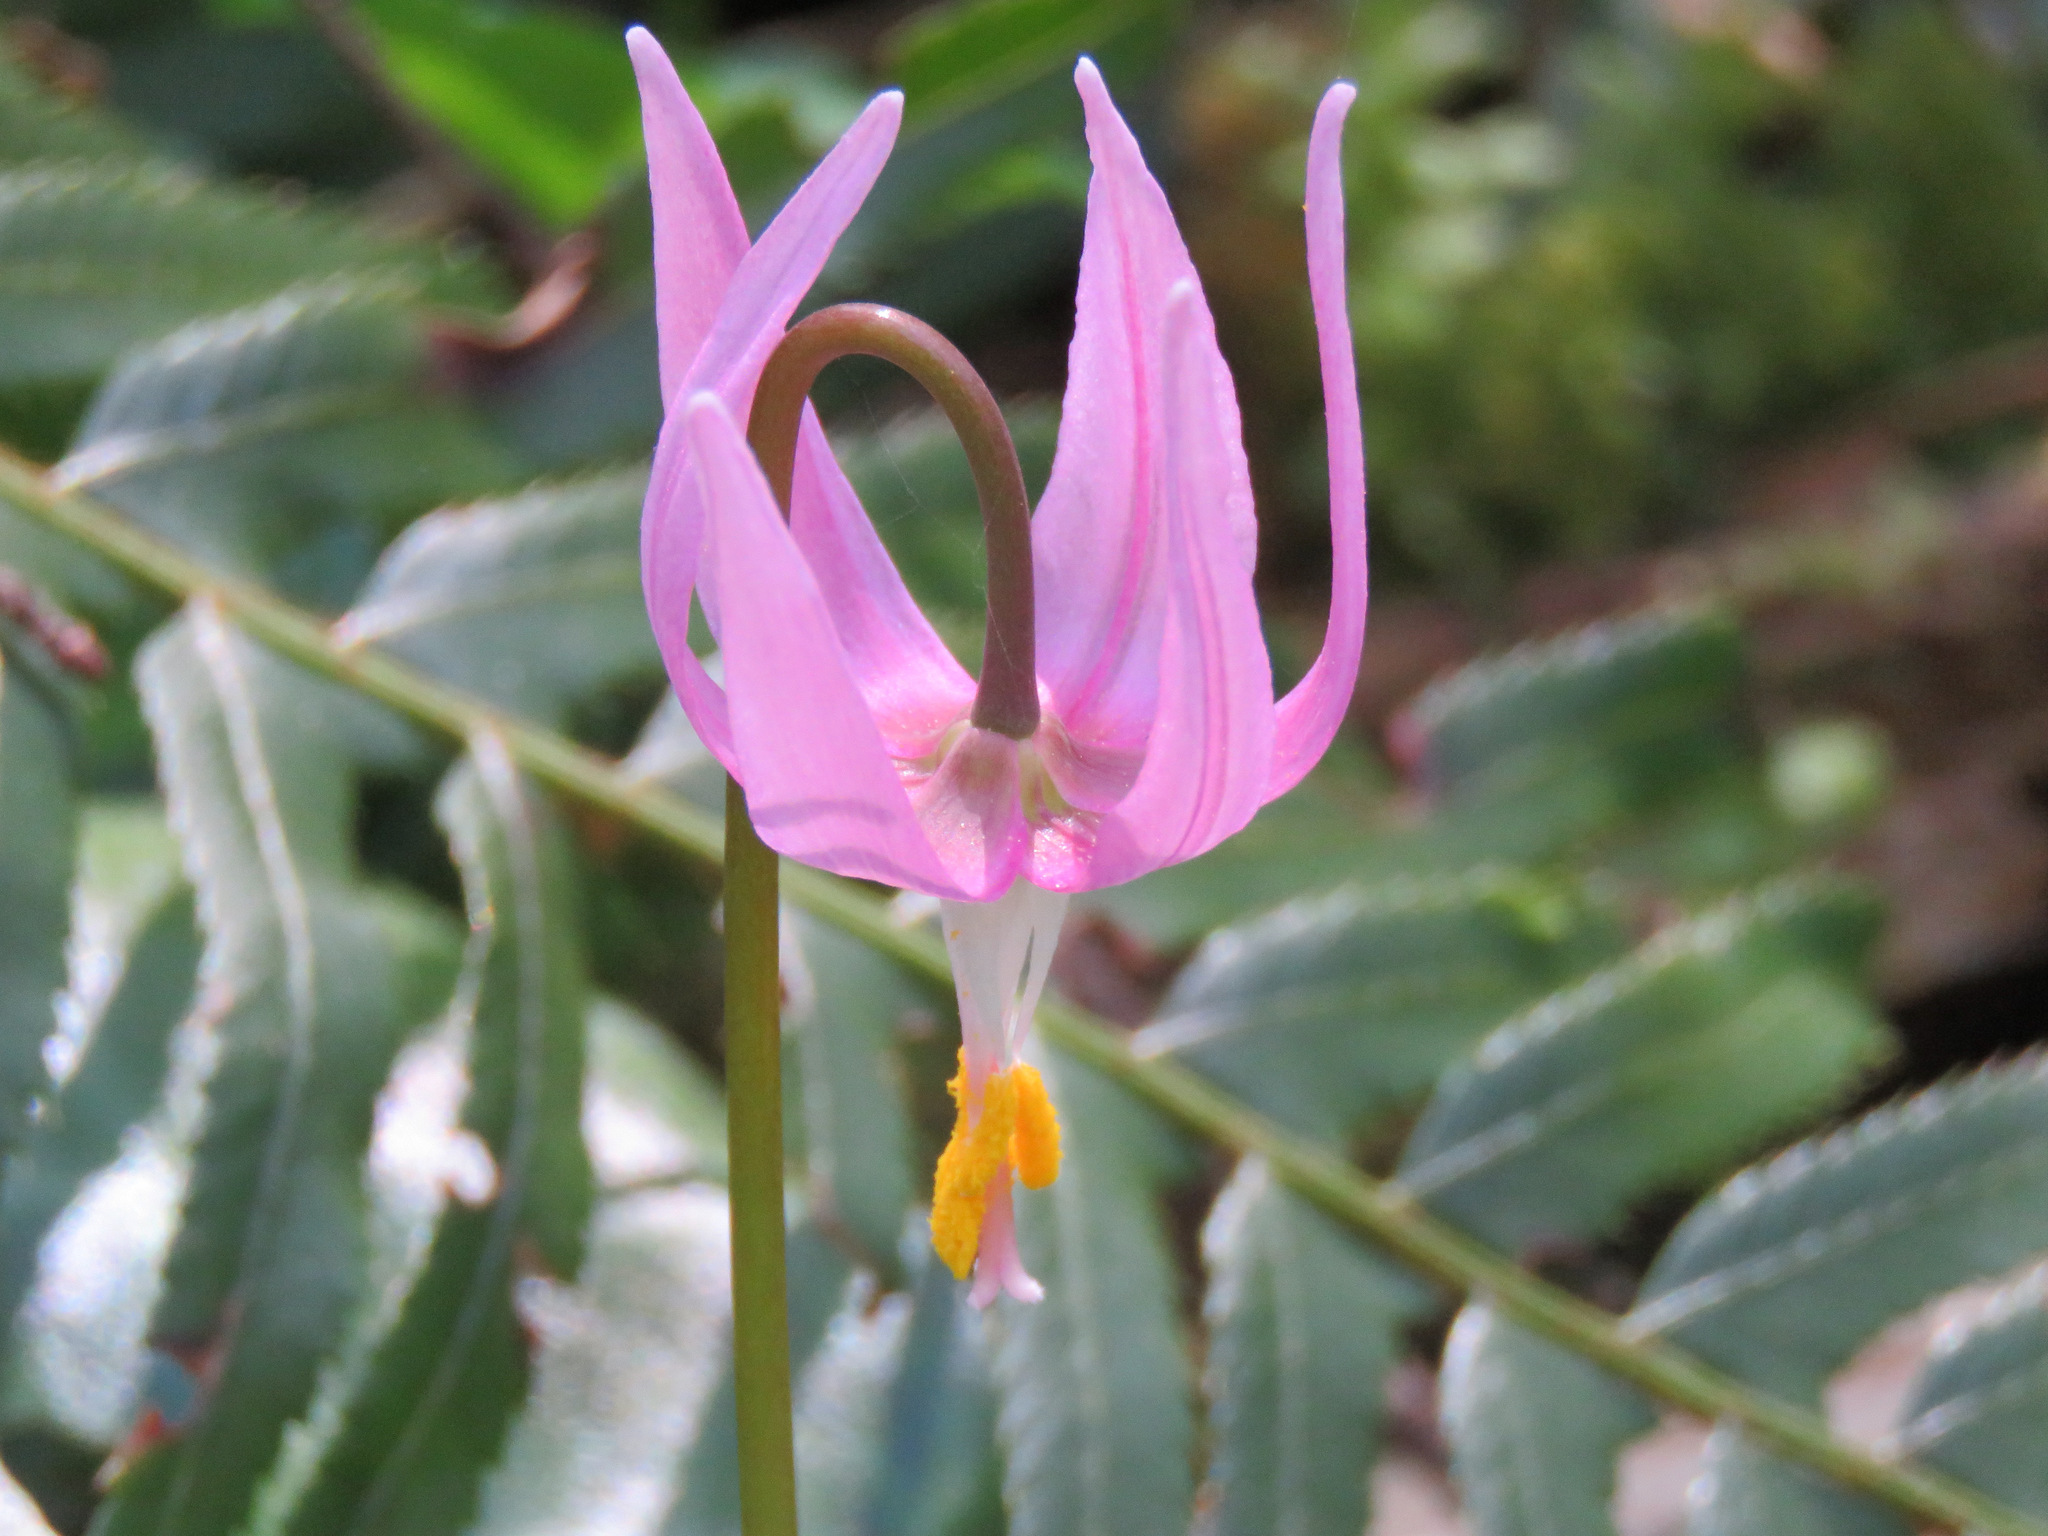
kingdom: Plantae
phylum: Tracheophyta
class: Liliopsida
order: Liliales
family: Liliaceae
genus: Erythronium
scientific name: Erythronium revolutum
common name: Pink fawn-lily
